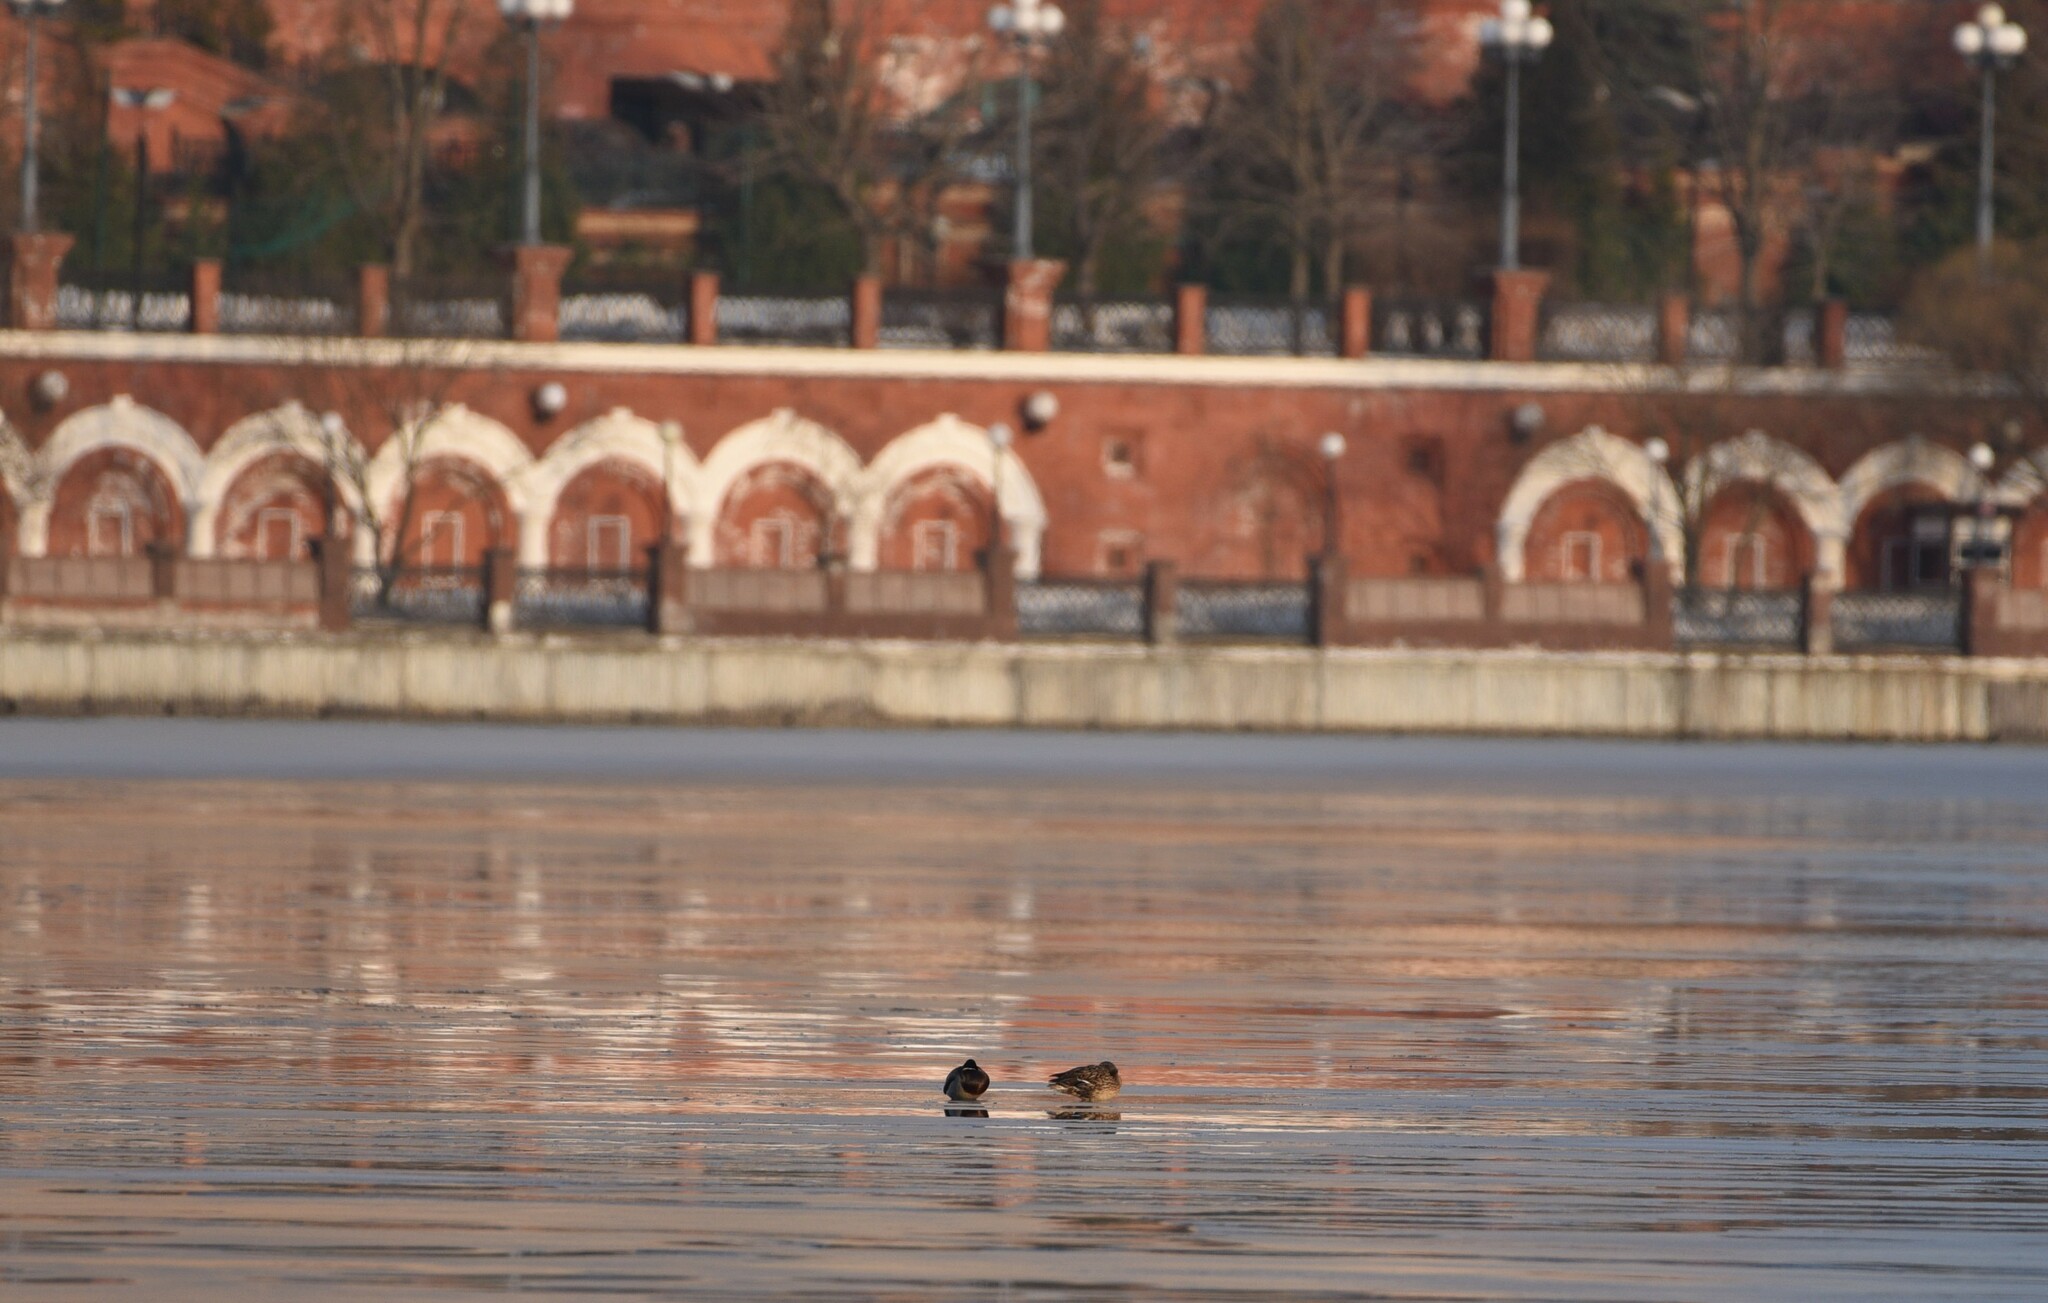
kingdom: Animalia
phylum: Chordata
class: Aves
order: Anseriformes
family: Anatidae
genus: Anas
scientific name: Anas platyrhynchos
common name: Mallard
